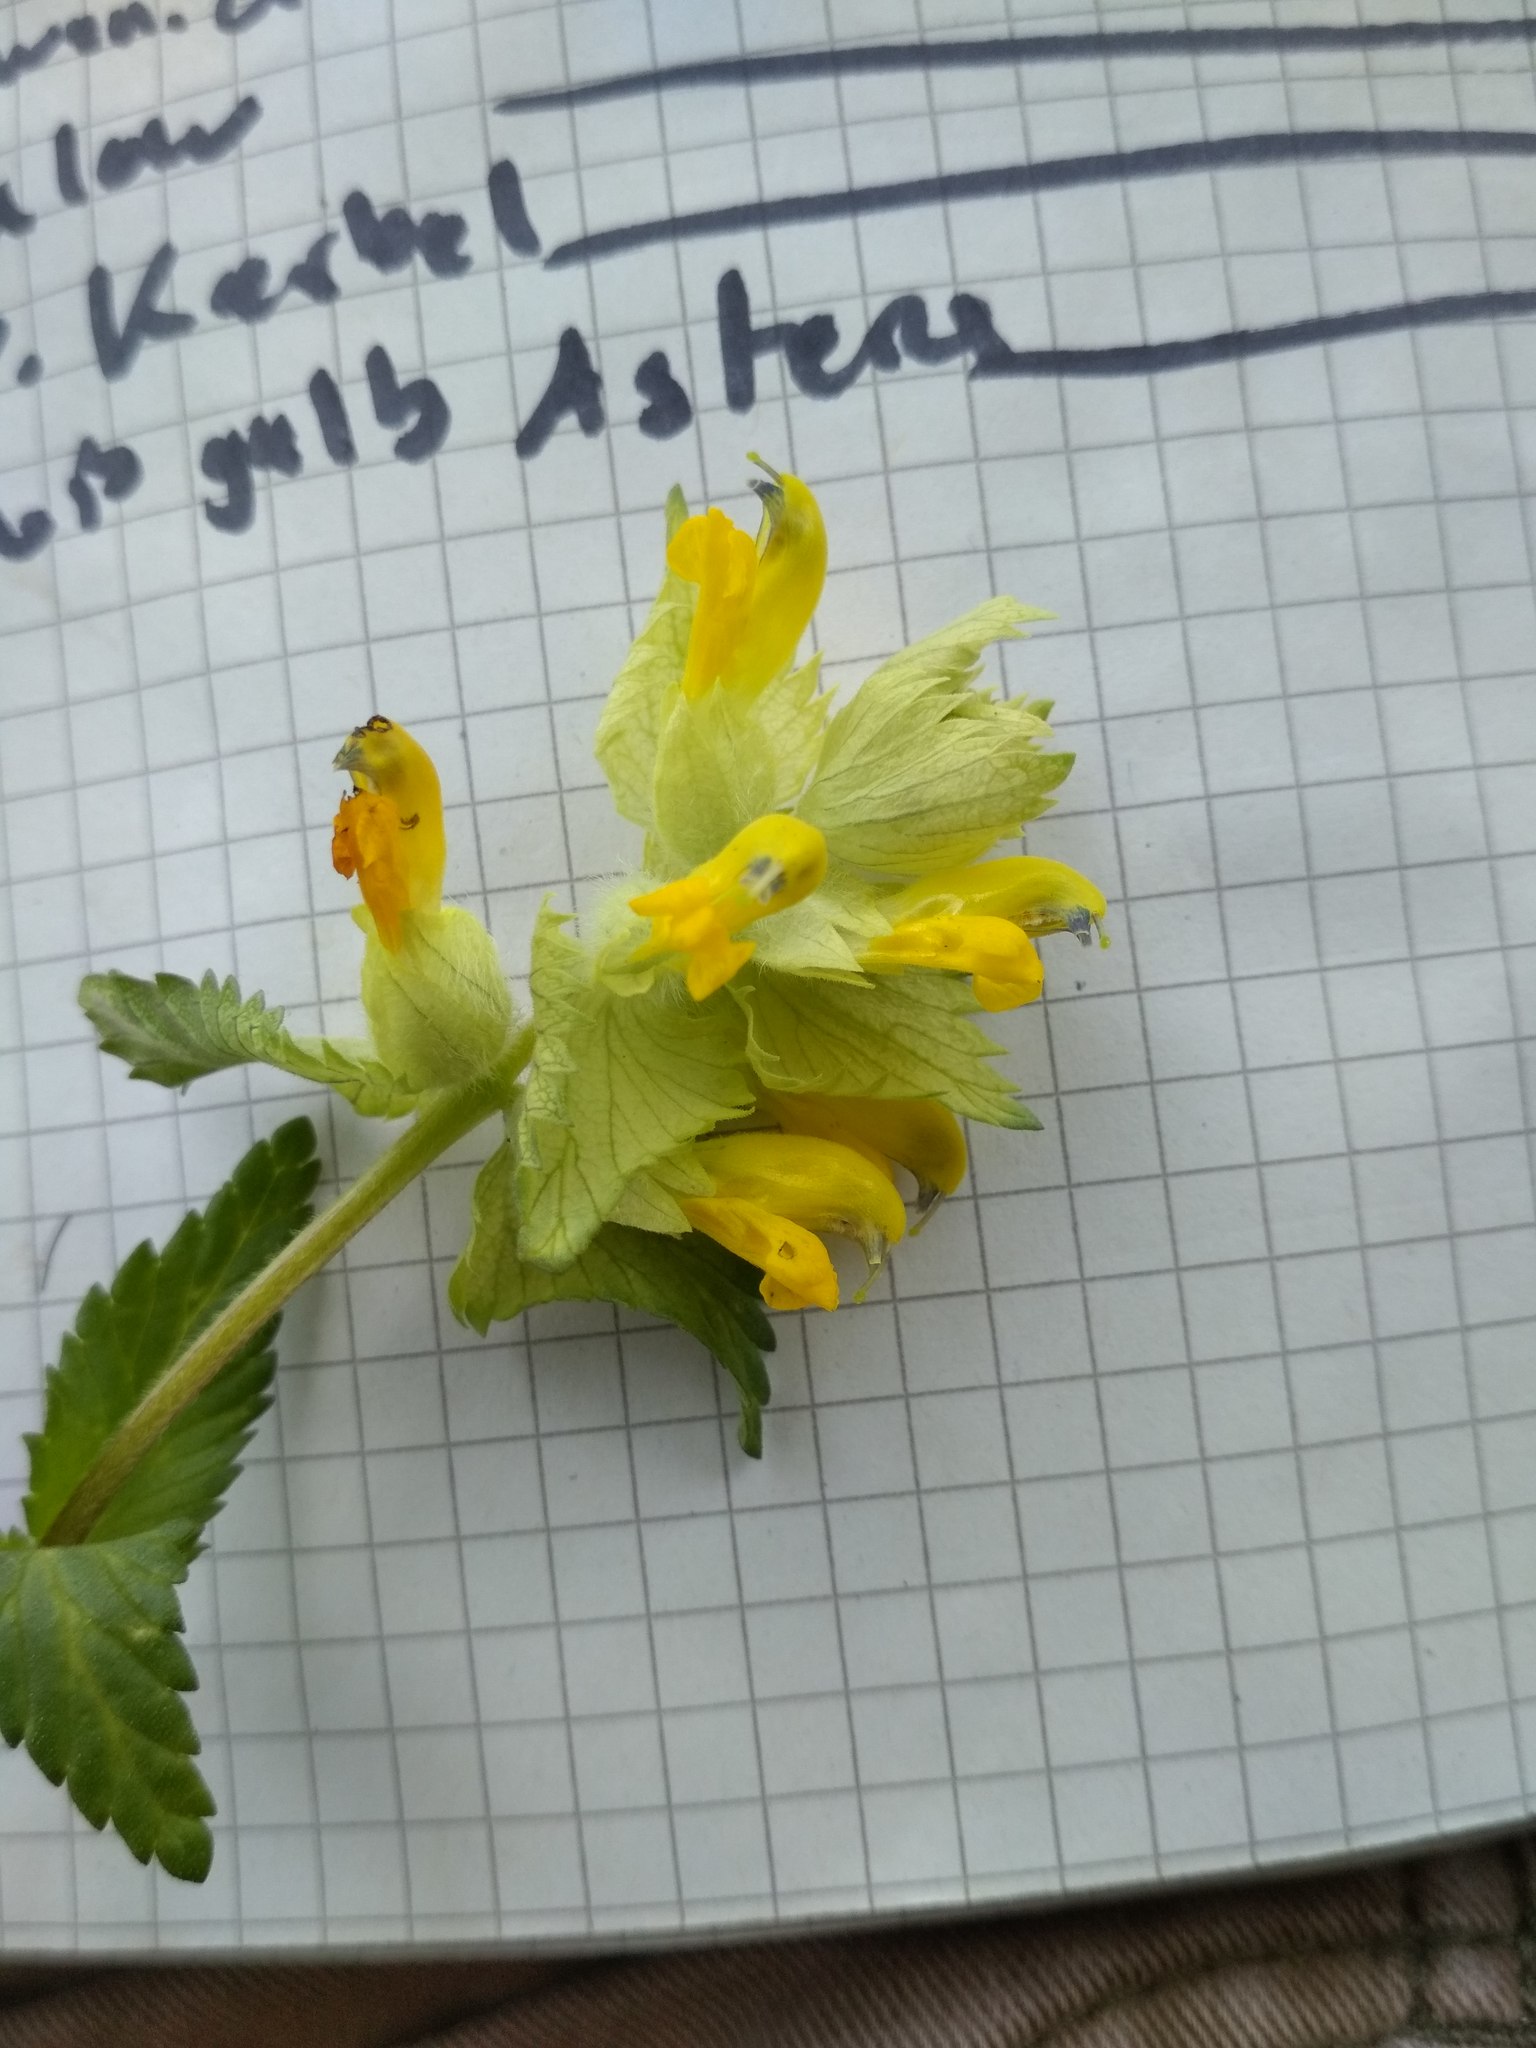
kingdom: Plantae
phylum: Tracheophyta
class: Magnoliopsida
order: Lamiales
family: Orobanchaceae
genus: Rhinanthus
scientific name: Rhinanthus alectorolophus
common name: Greater yellow-rattle
